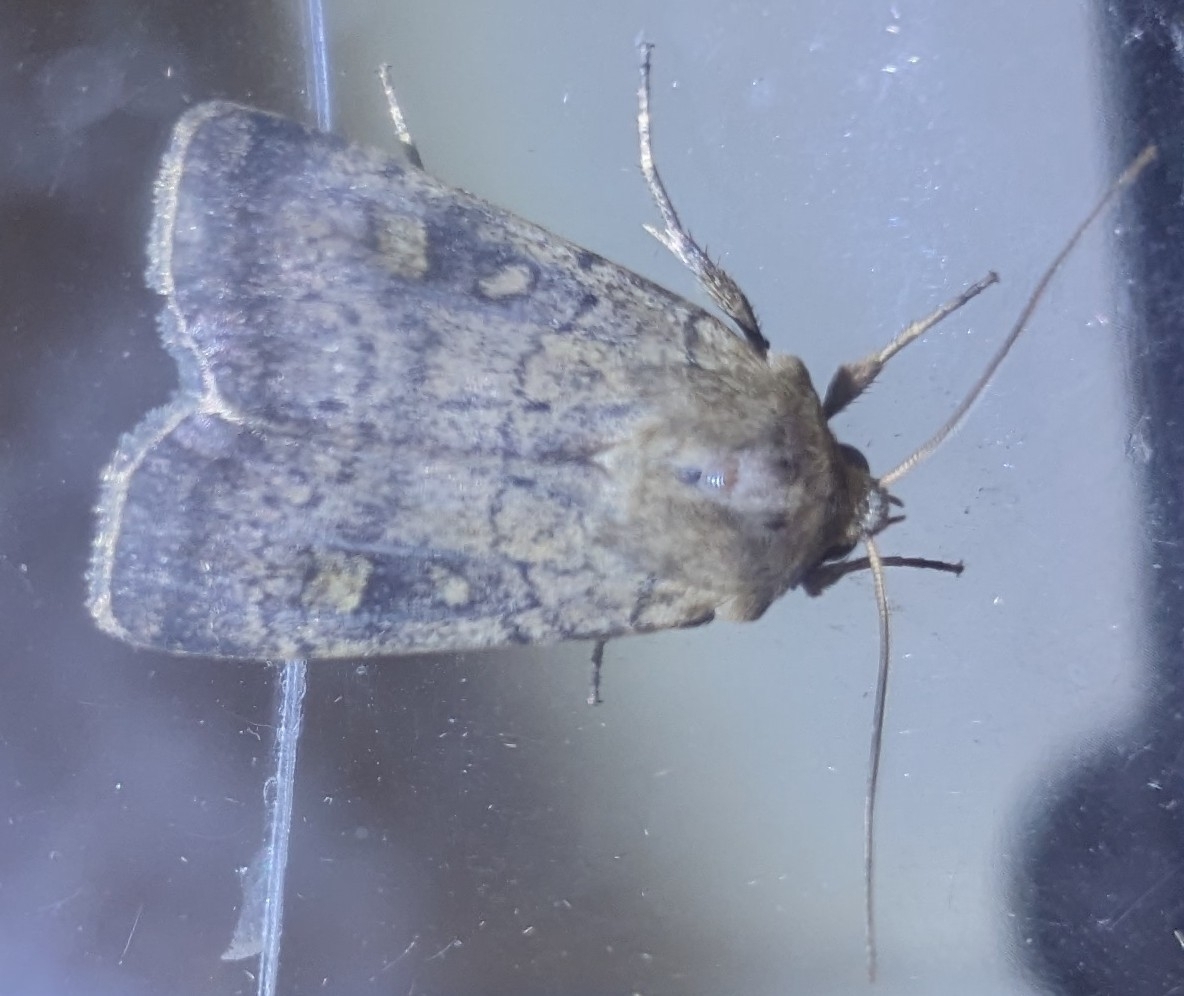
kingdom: Animalia
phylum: Arthropoda
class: Insecta
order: Lepidoptera
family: Noctuidae
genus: Xestia
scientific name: Xestia xanthographa
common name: Square-spot rustic
